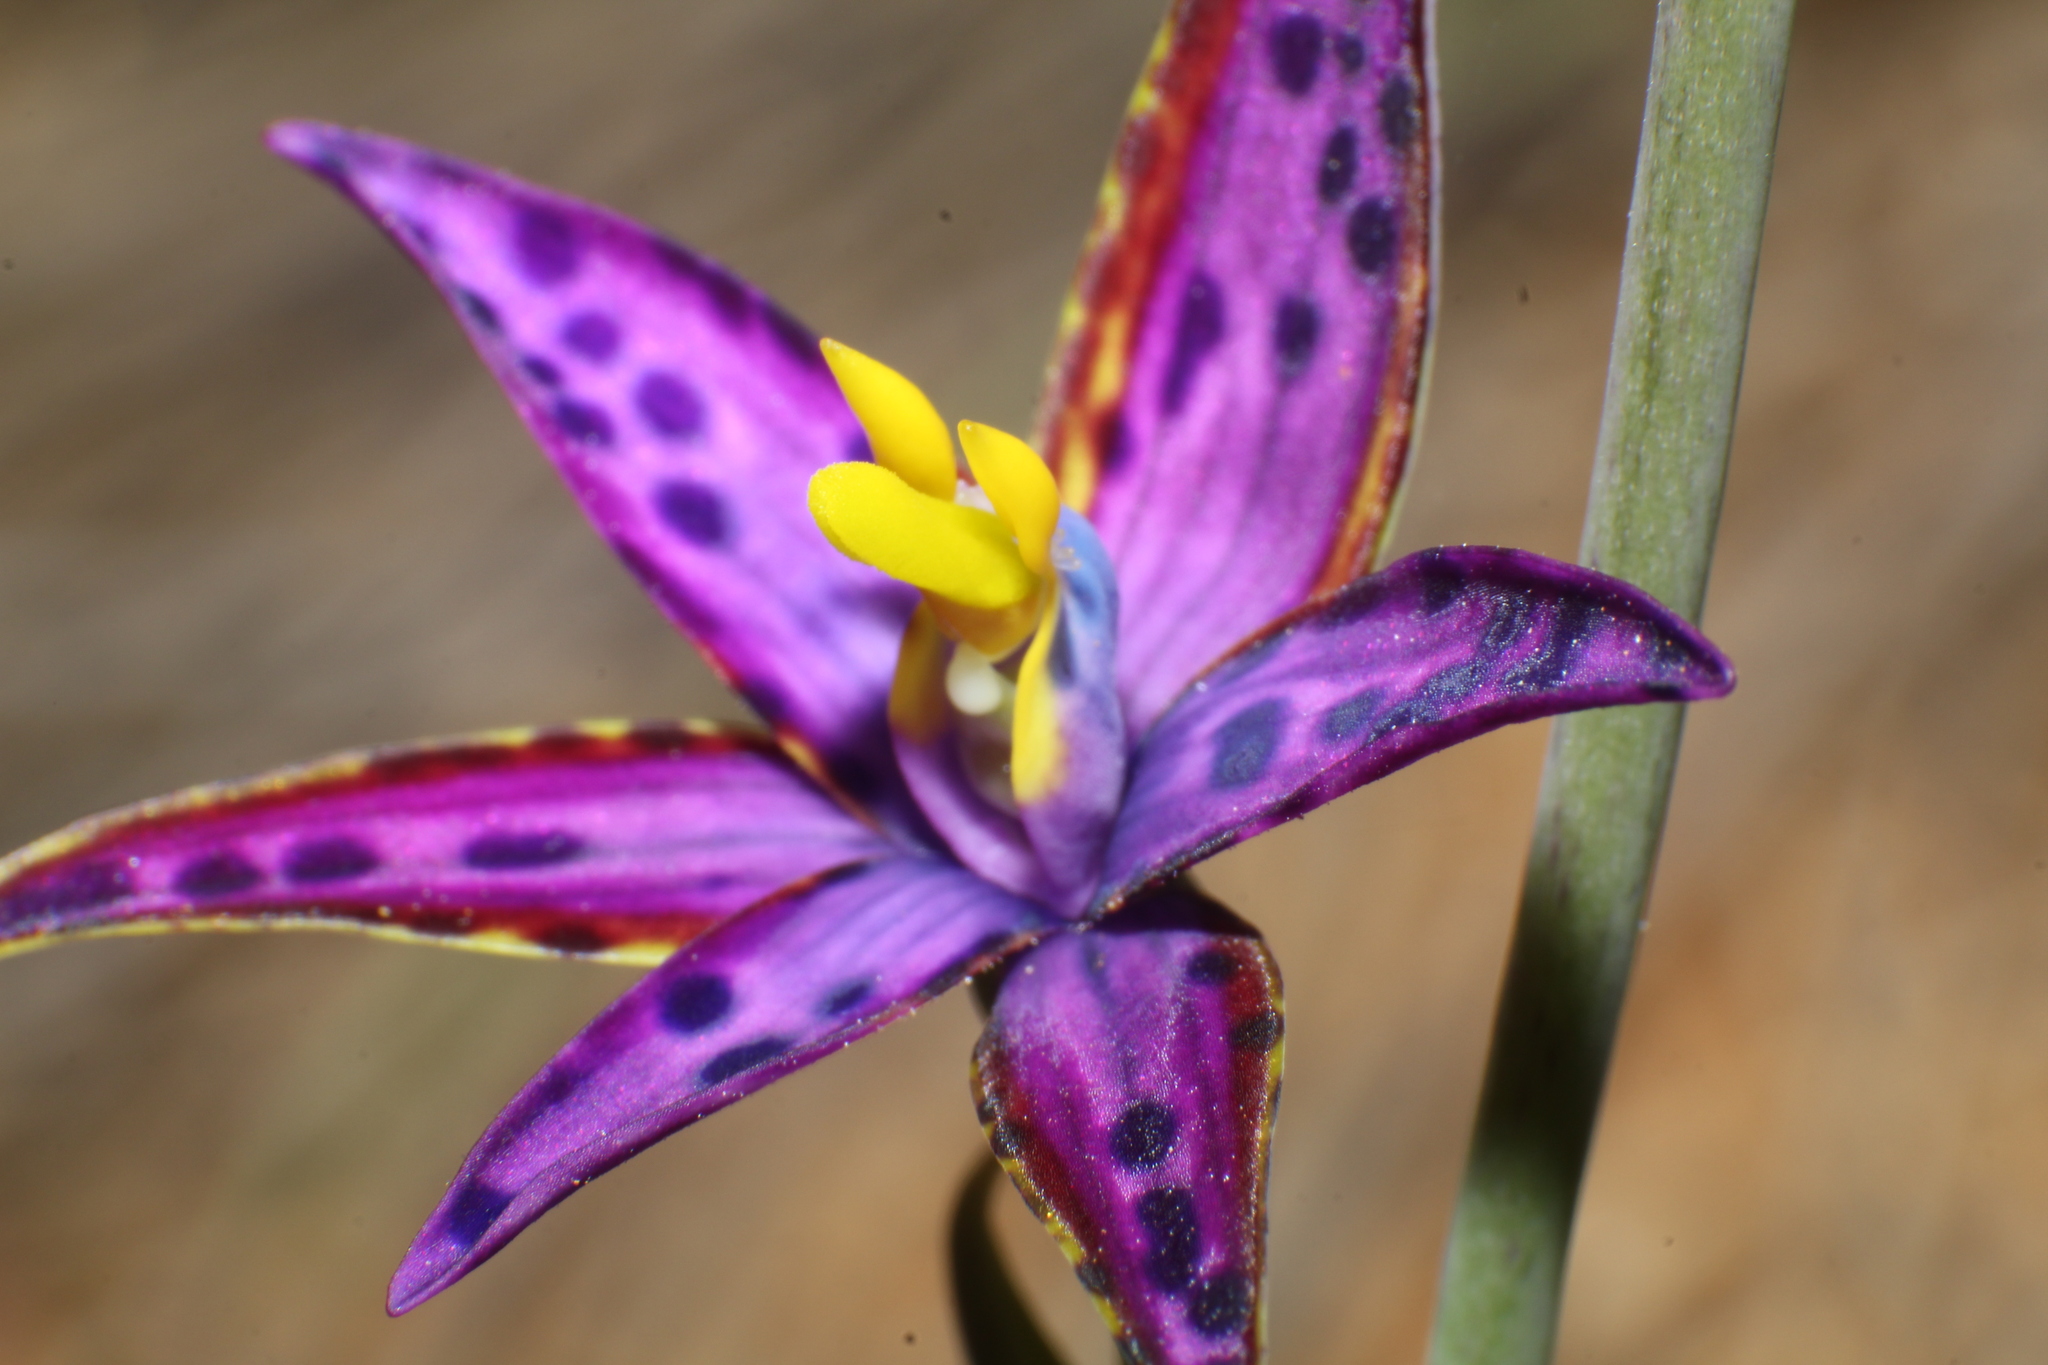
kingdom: Plantae
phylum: Tracheophyta
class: Liliopsida
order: Asparagales
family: Orchidaceae
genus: Thelymitra
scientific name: Thelymitra porphyrosticta
